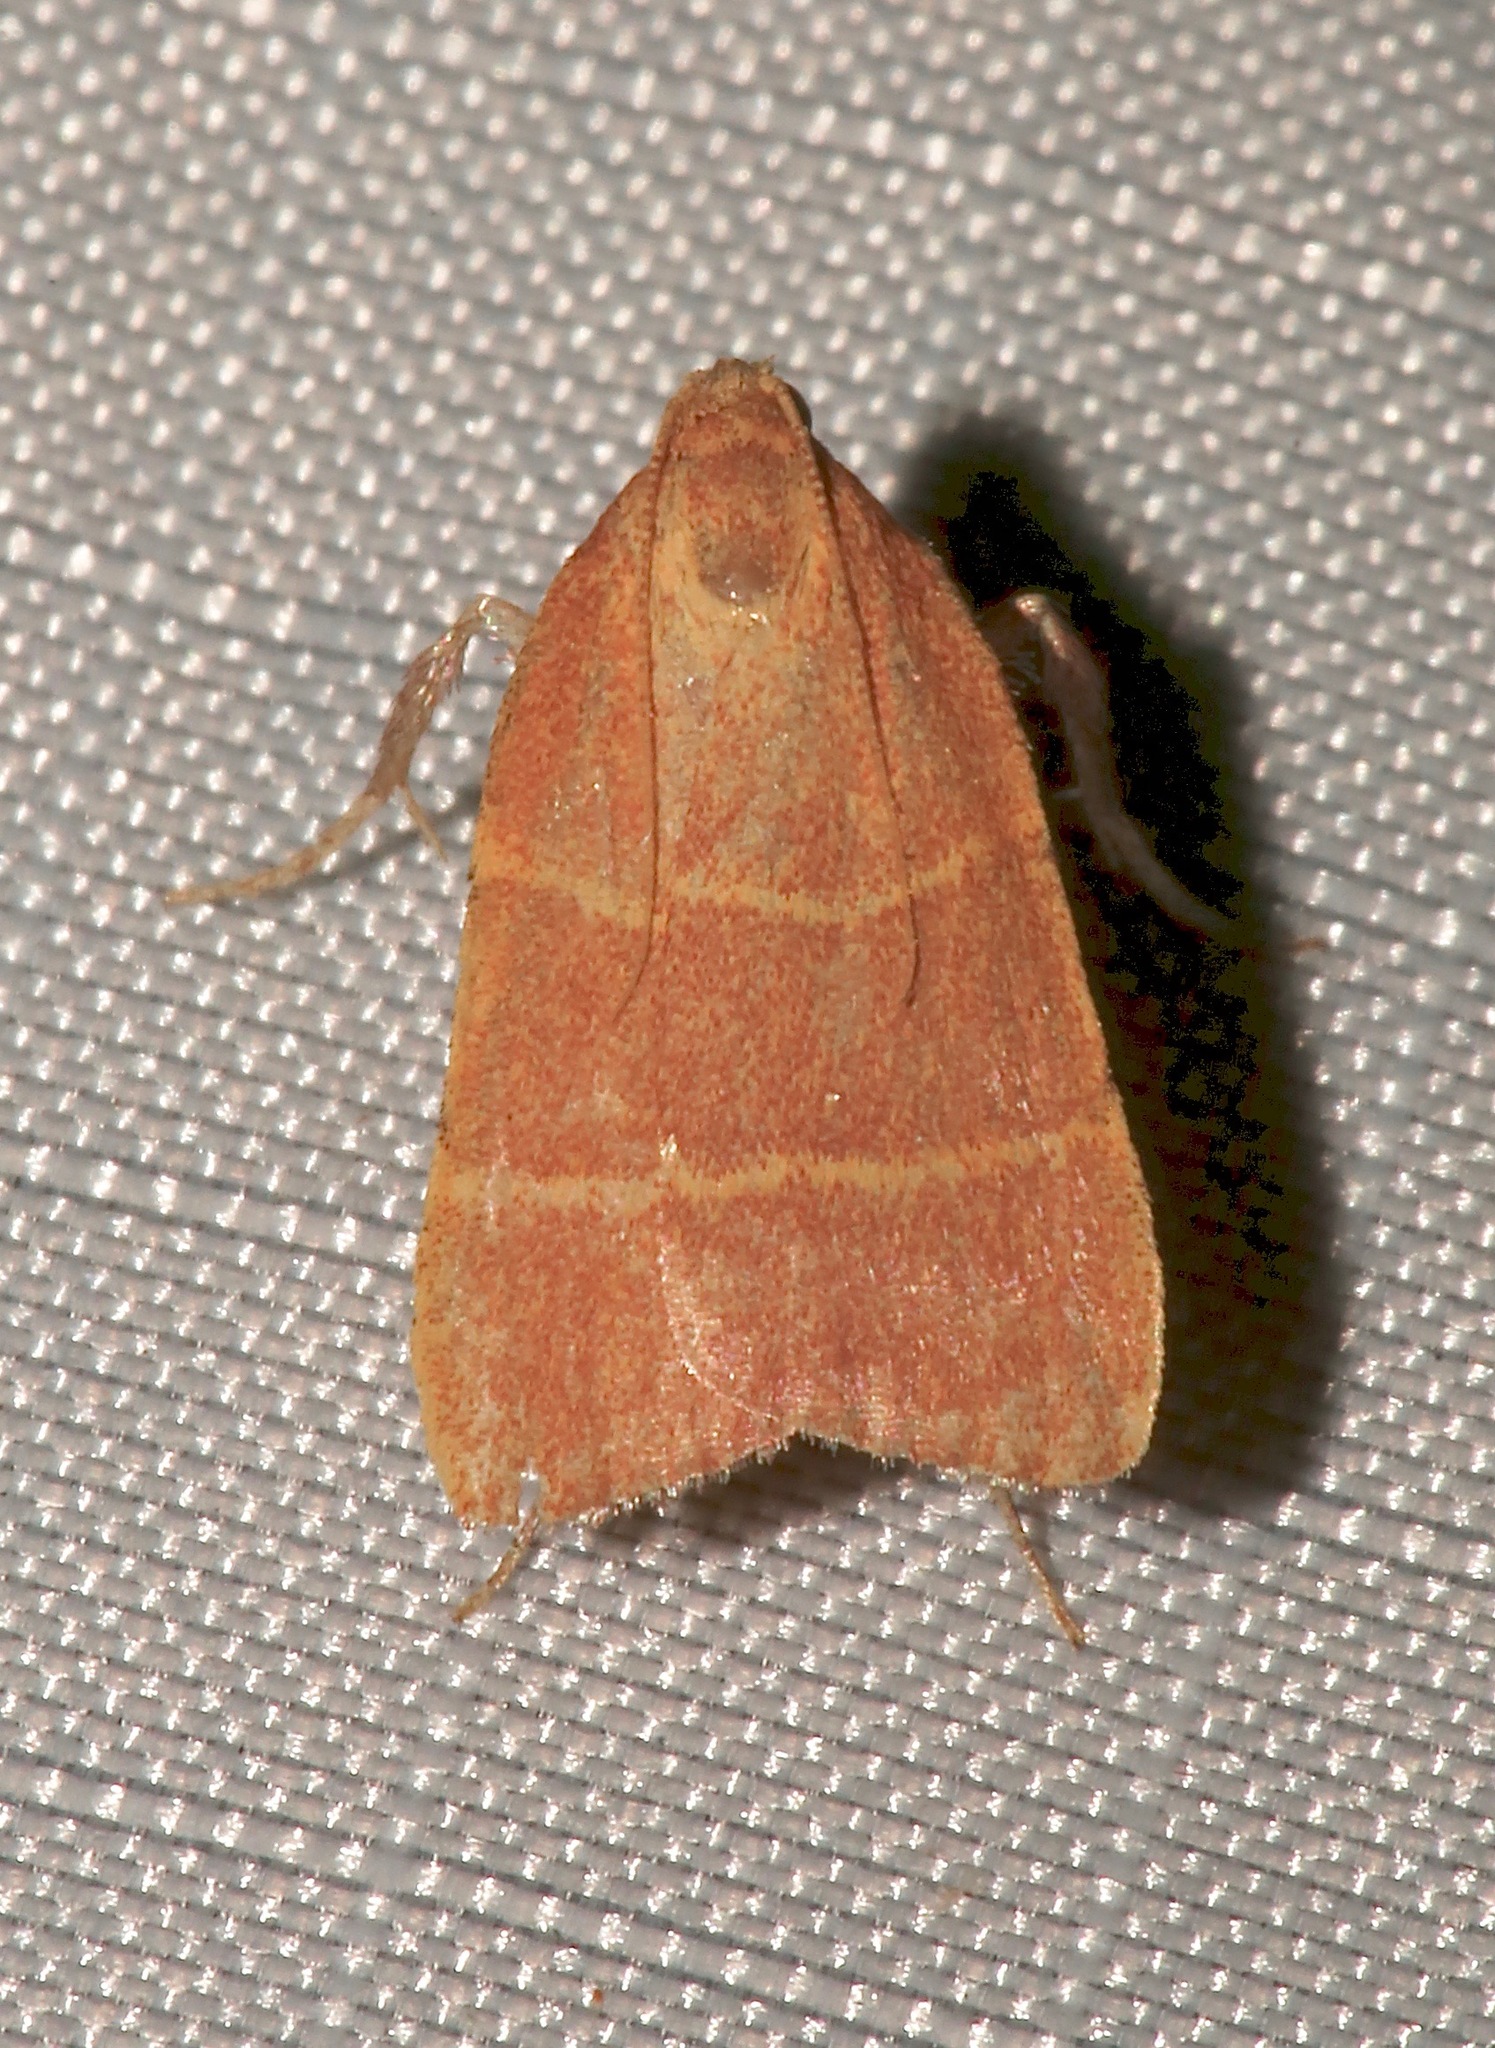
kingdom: Animalia
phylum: Arthropoda
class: Insecta
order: Lepidoptera
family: Pyralidae
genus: Parachma
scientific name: Parachma ochracealis
